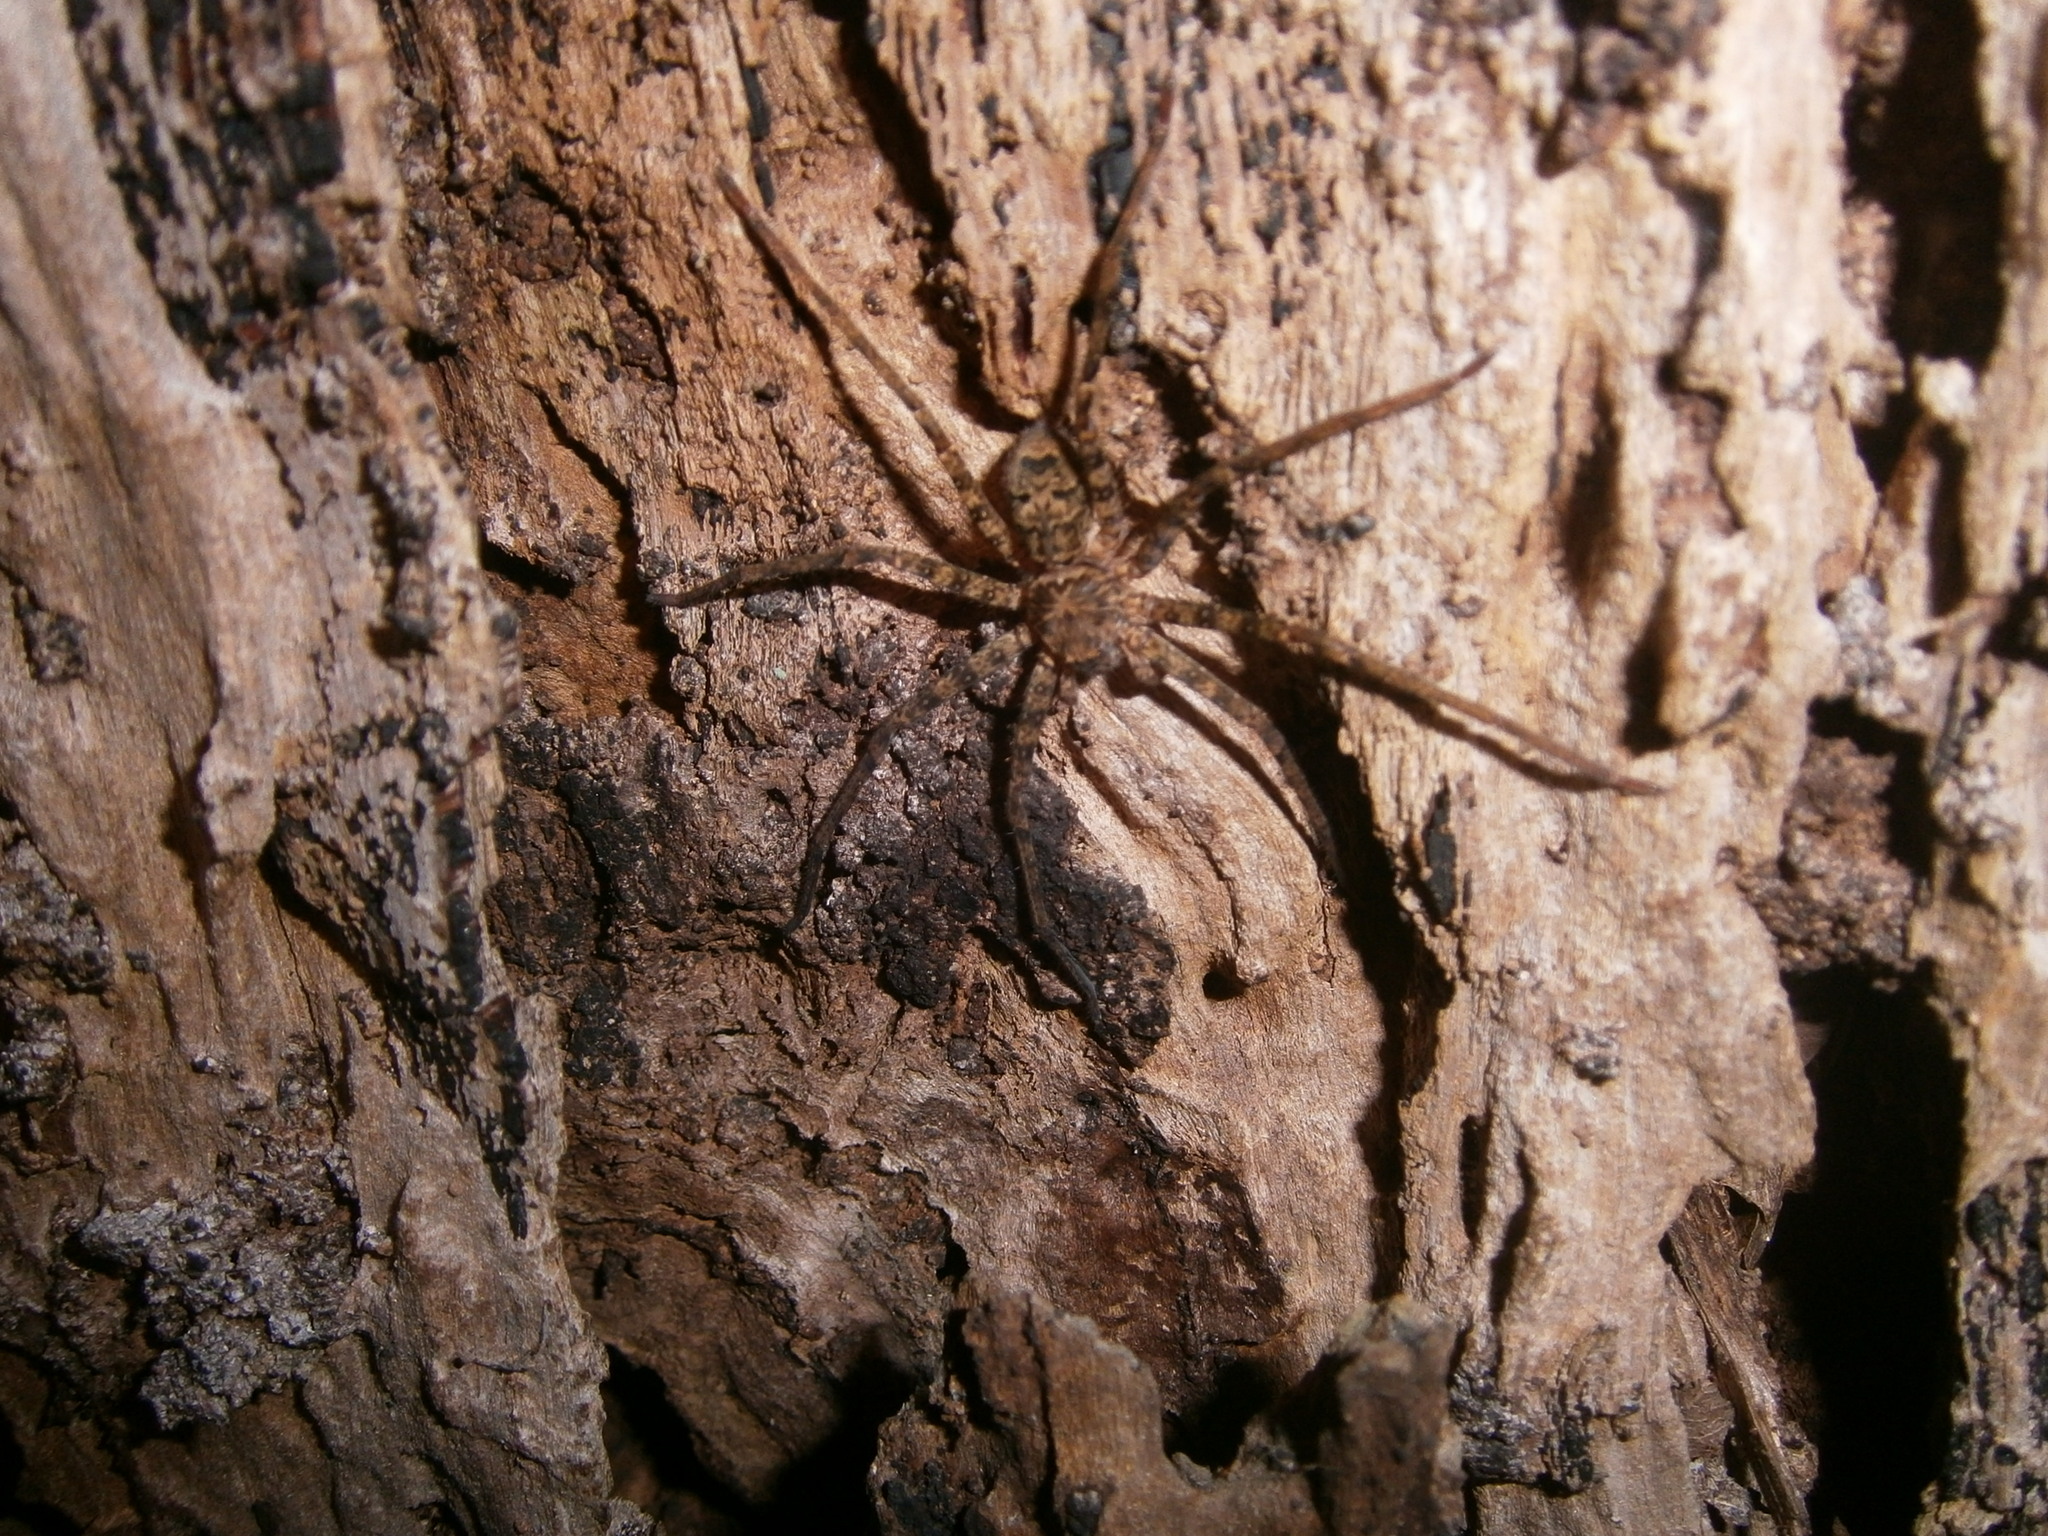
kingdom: Animalia
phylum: Arthropoda
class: Arachnida
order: Araneae
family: Sparassidae
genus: Heteropoda
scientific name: Heteropoda longipes
